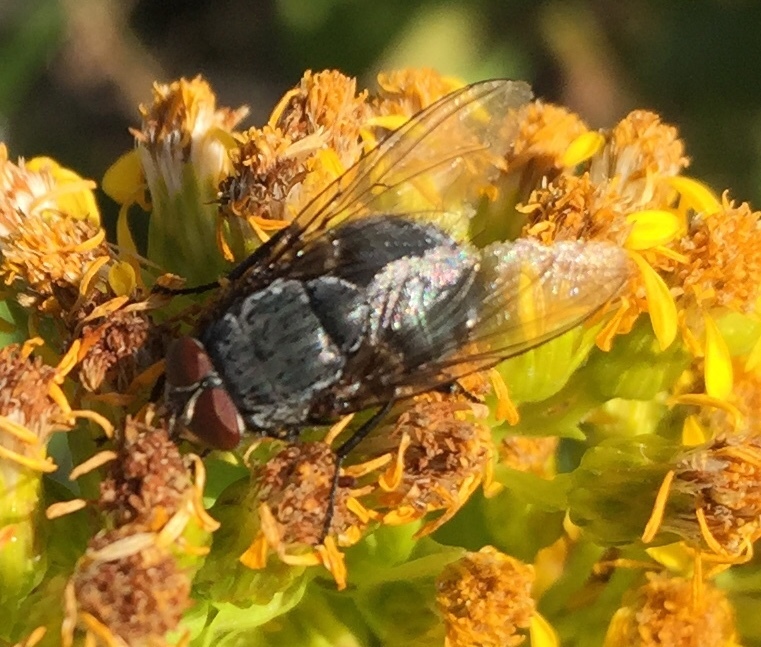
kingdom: Animalia
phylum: Arthropoda
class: Insecta
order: Diptera
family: Calliphoridae
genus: Calliphora
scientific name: Calliphora vicina
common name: Common blow flie
